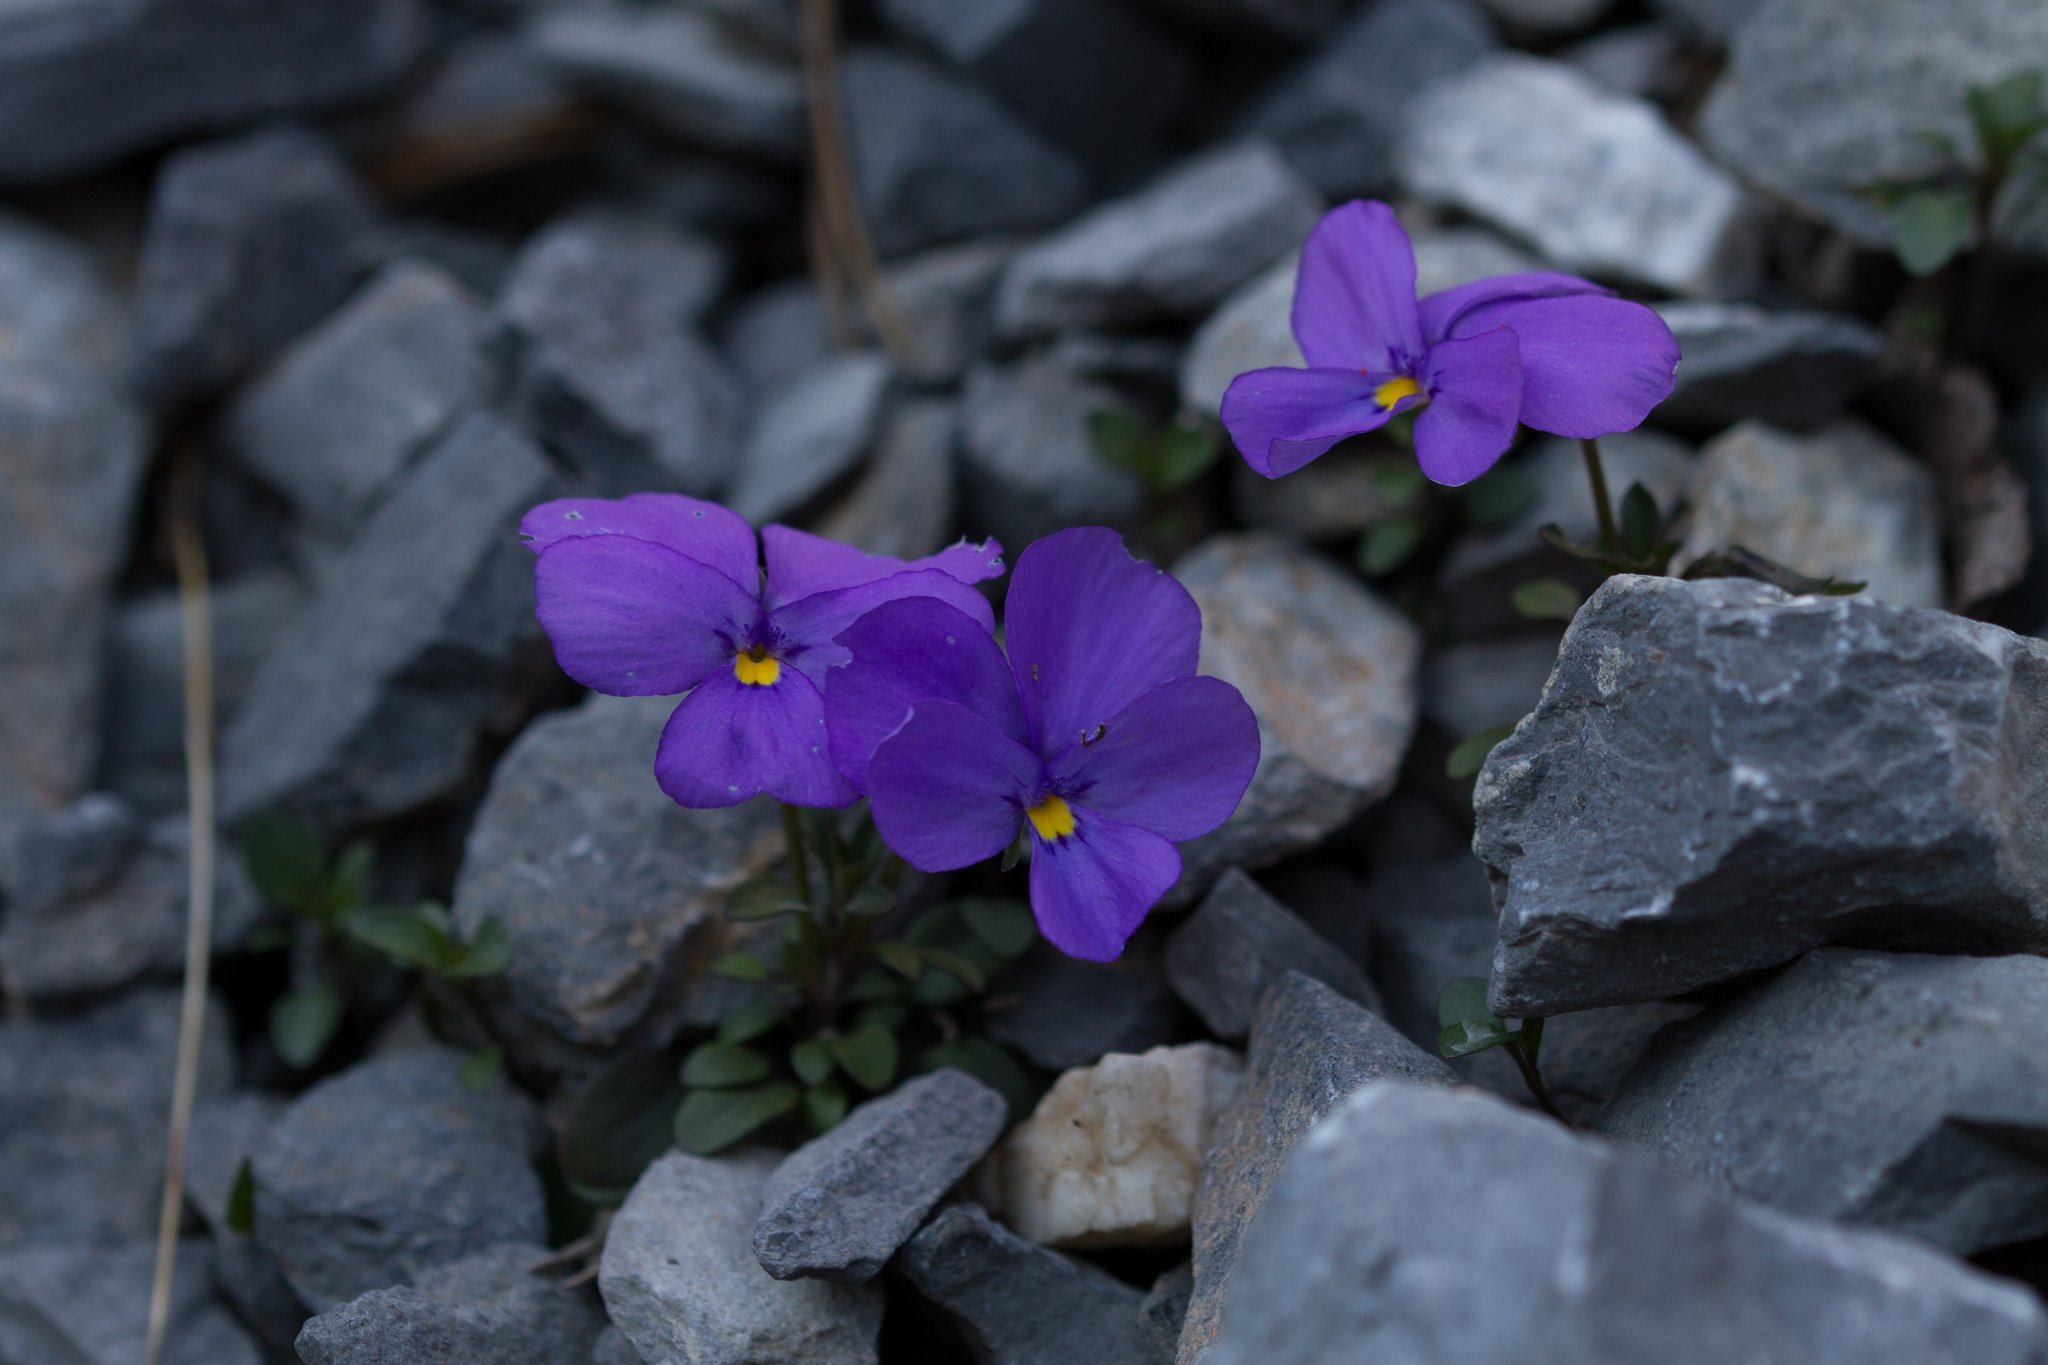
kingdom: Plantae
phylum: Tracheophyta
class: Magnoliopsida
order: Malpighiales
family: Violaceae
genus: Viola
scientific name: Viola cenisia
